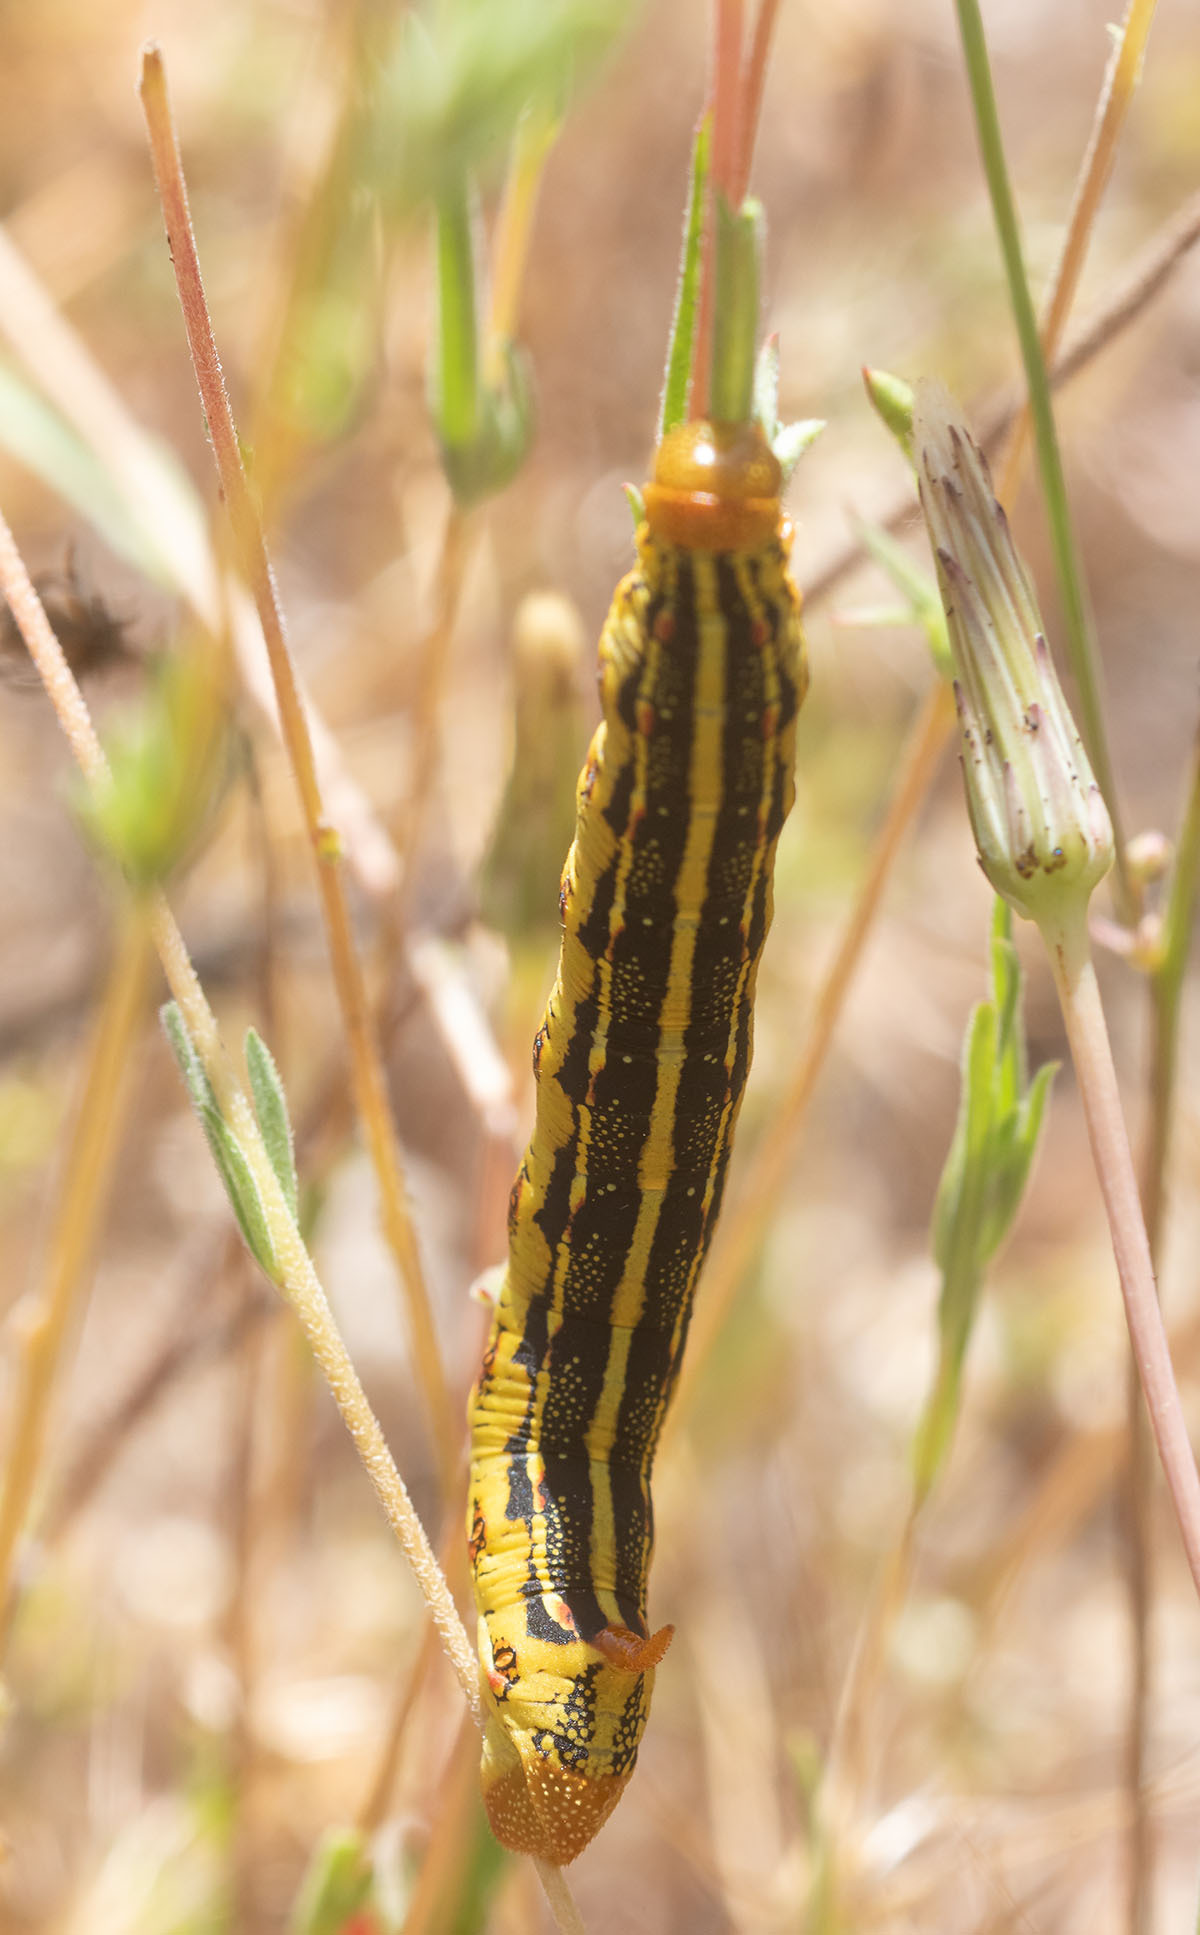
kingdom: Animalia
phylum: Arthropoda
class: Insecta
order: Lepidoptera
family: Sphingidae
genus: Hyles
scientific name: Hyles lineata
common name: White-lined sphinx
